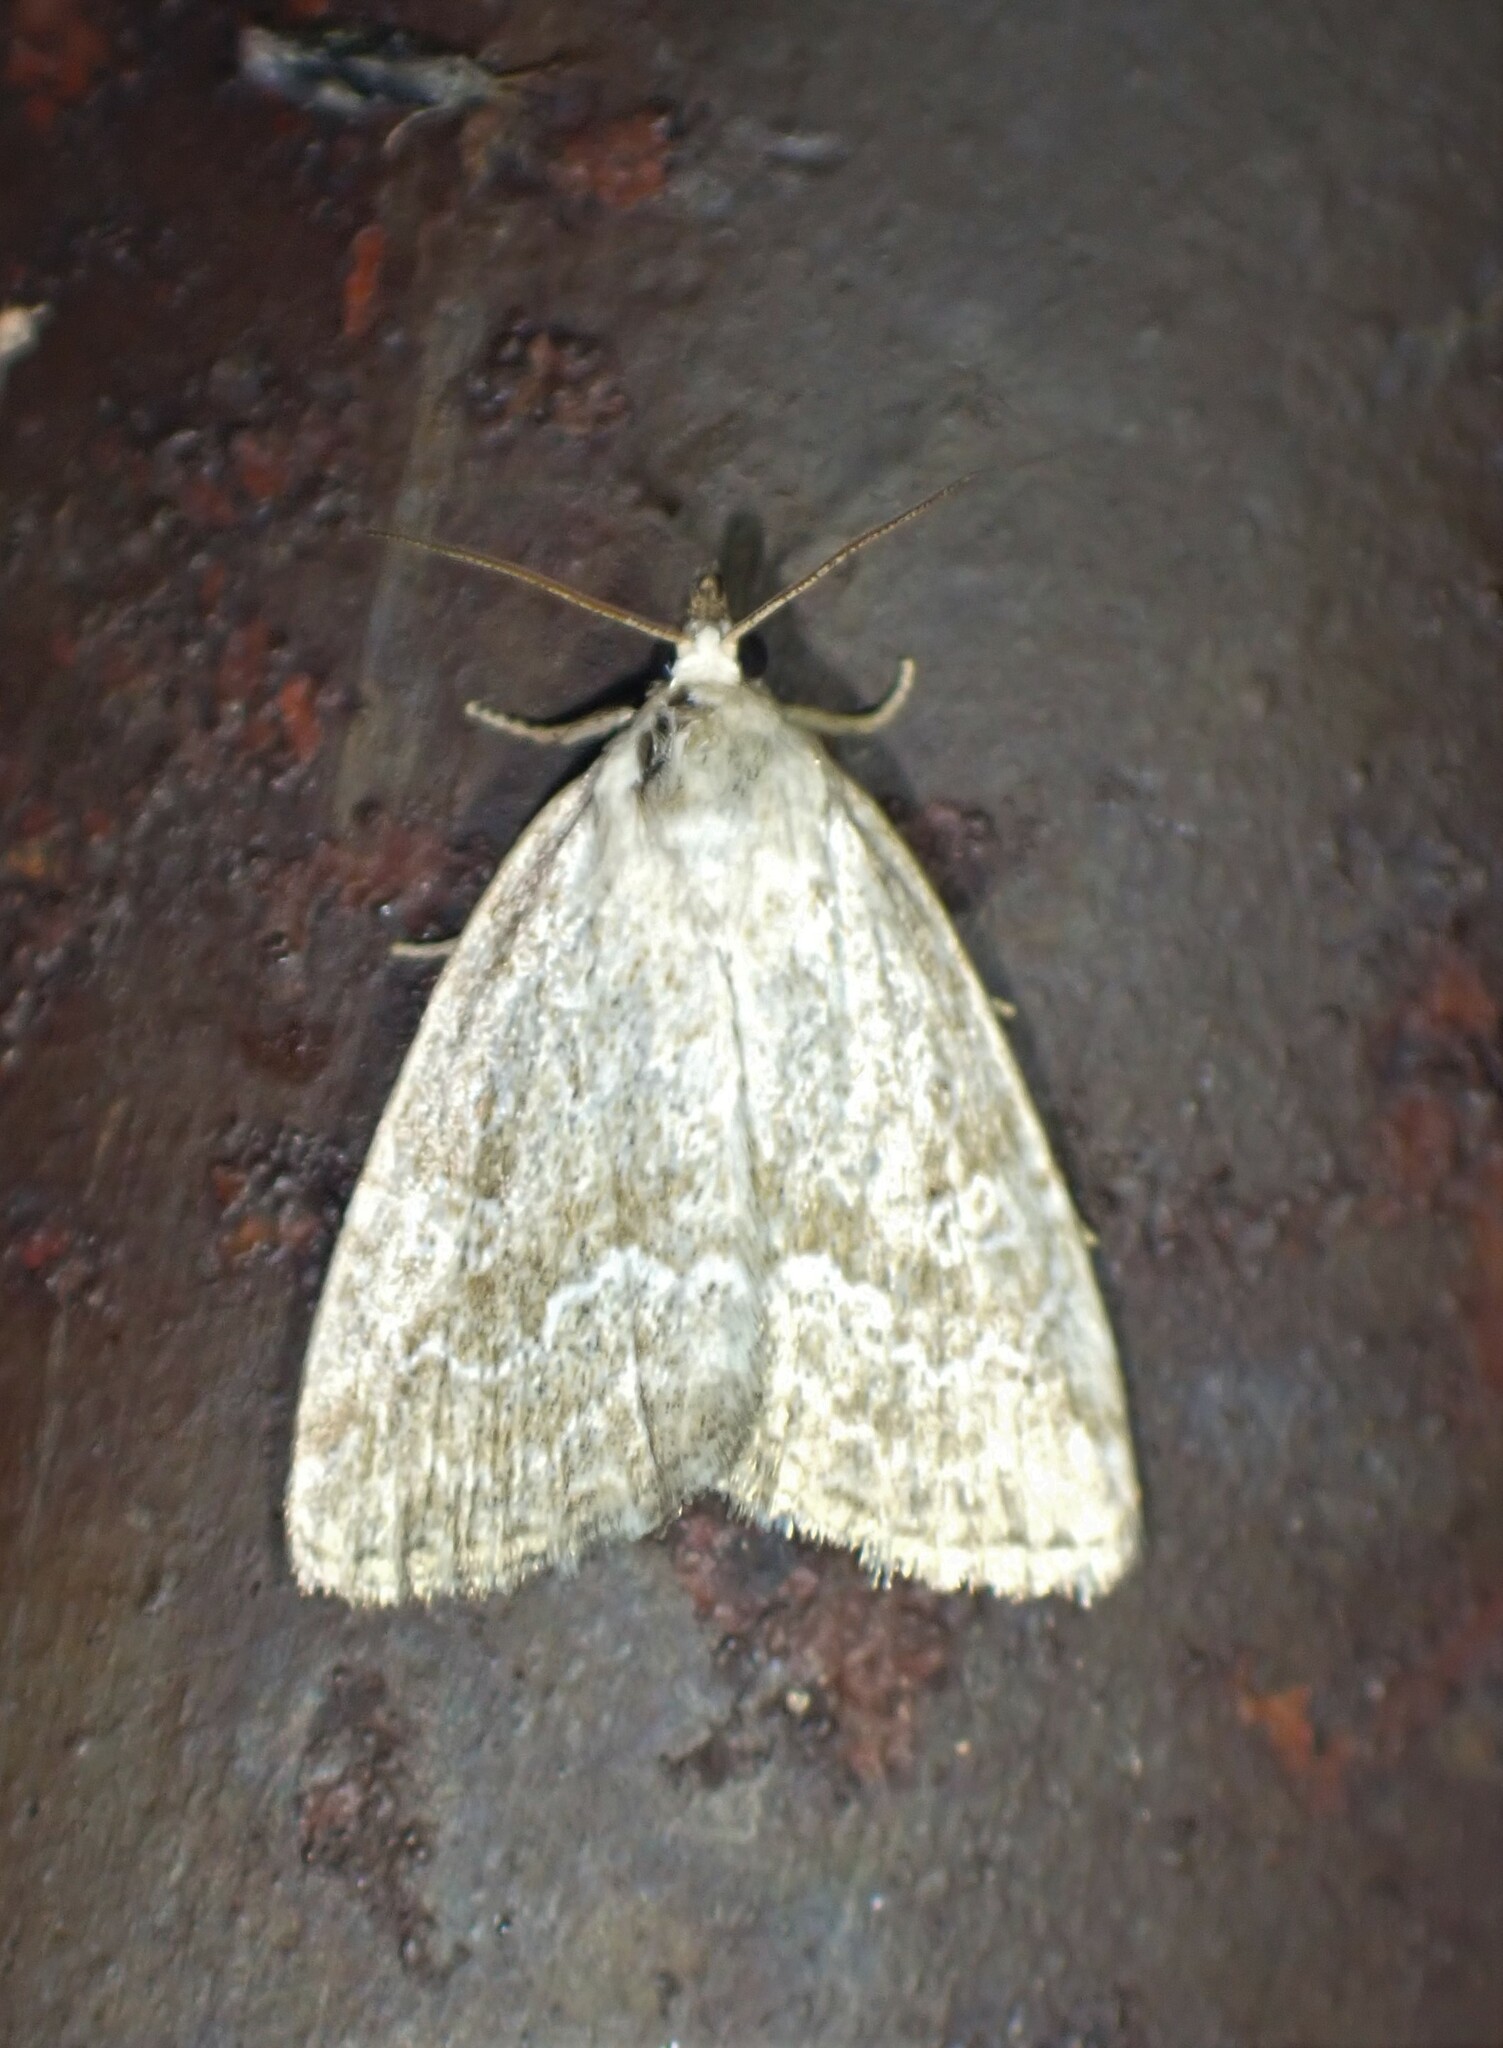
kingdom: Animalia
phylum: Arthropoda
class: Insecta
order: Lepidoptera
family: Noctuidae
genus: Protodeltote
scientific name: Protodeltote albidula
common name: Pale glyph
